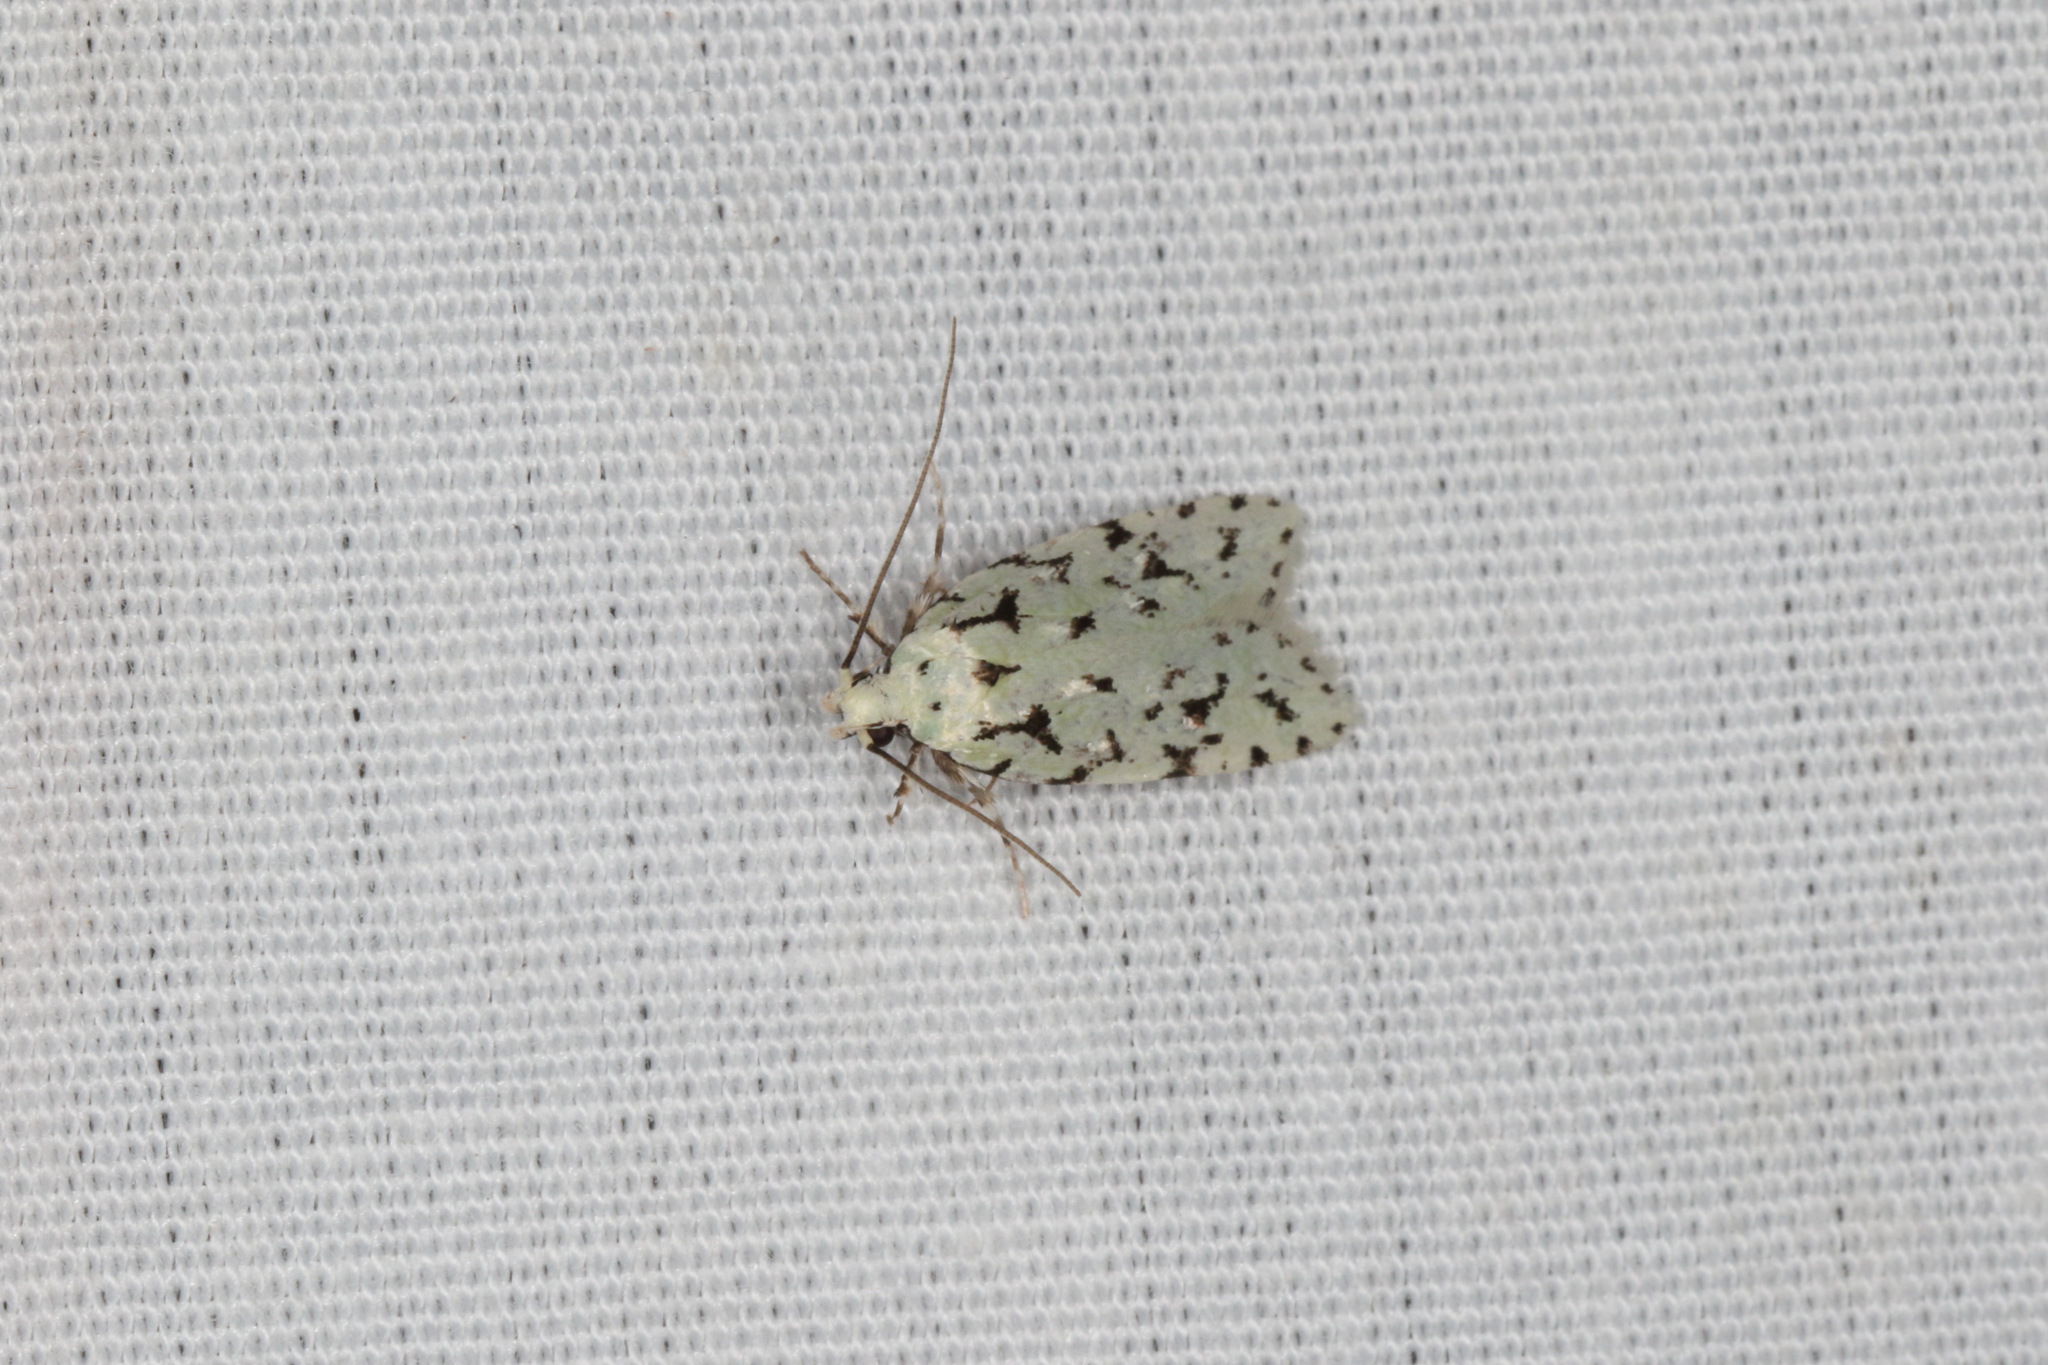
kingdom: Animalia
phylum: Arthropoda
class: Insecta
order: Lepidoptera
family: Oecophoridae
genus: Izatha
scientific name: Izatha peroneanella
